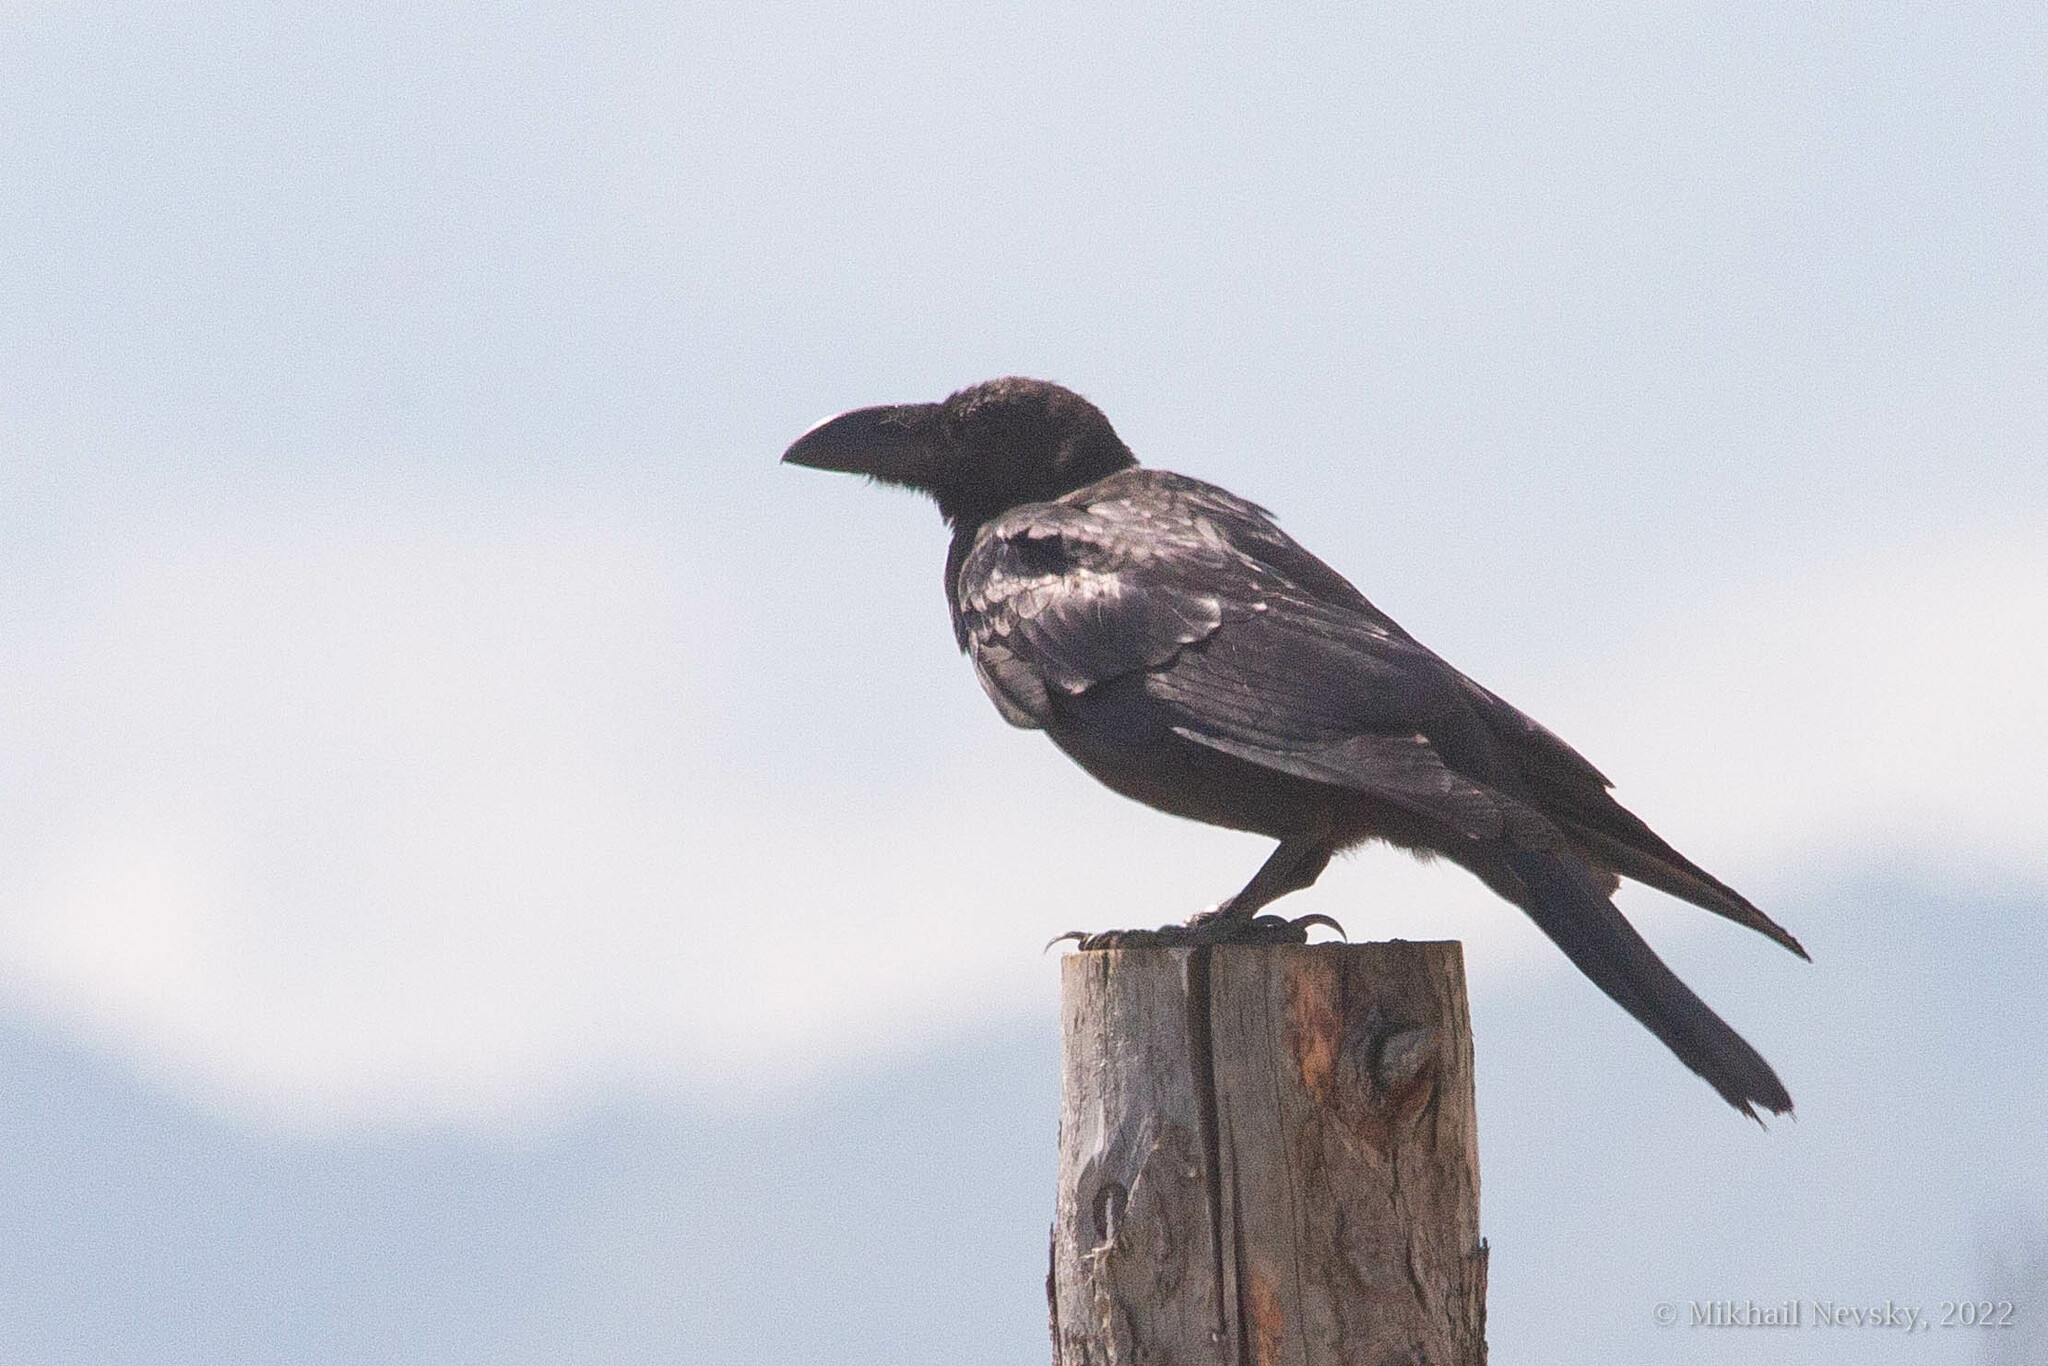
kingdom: Animalia
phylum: Chordata
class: Aves
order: Passeriformes
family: Corvidae
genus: Corvus
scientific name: Corvus macrorhynchos
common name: Large-billed crow
